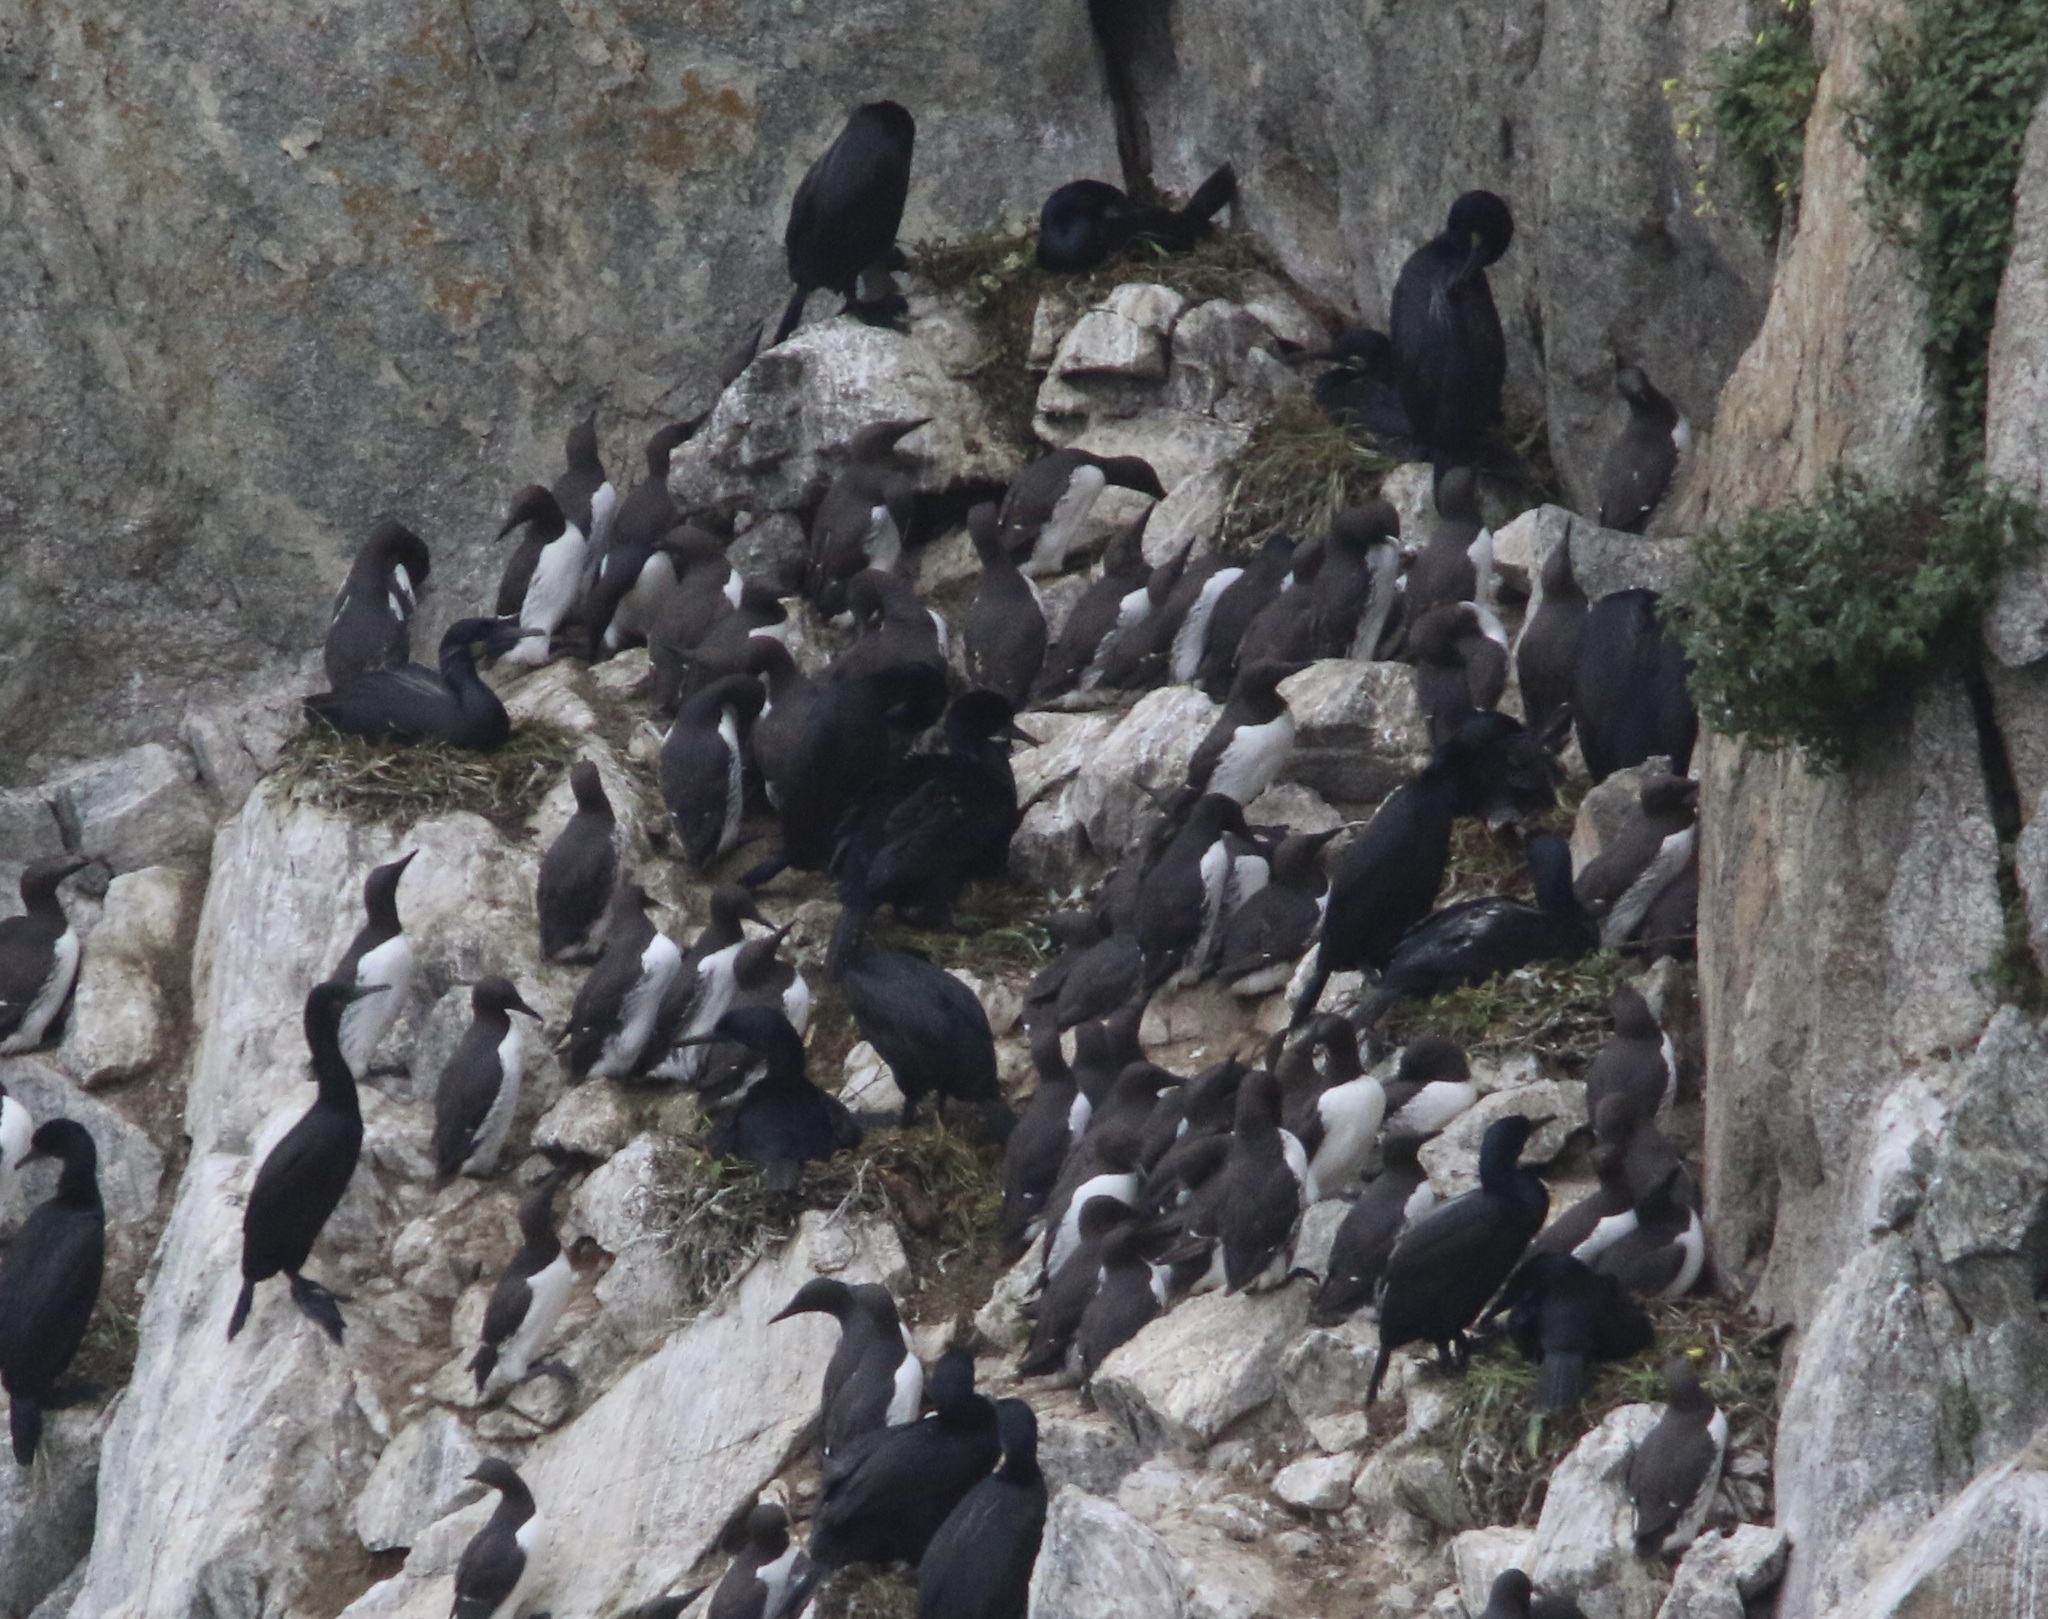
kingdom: Animalia
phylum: Chordata
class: Aves
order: Charadriiformes
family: Alcidae
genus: Uria
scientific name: Uria aalge
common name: Common murre
